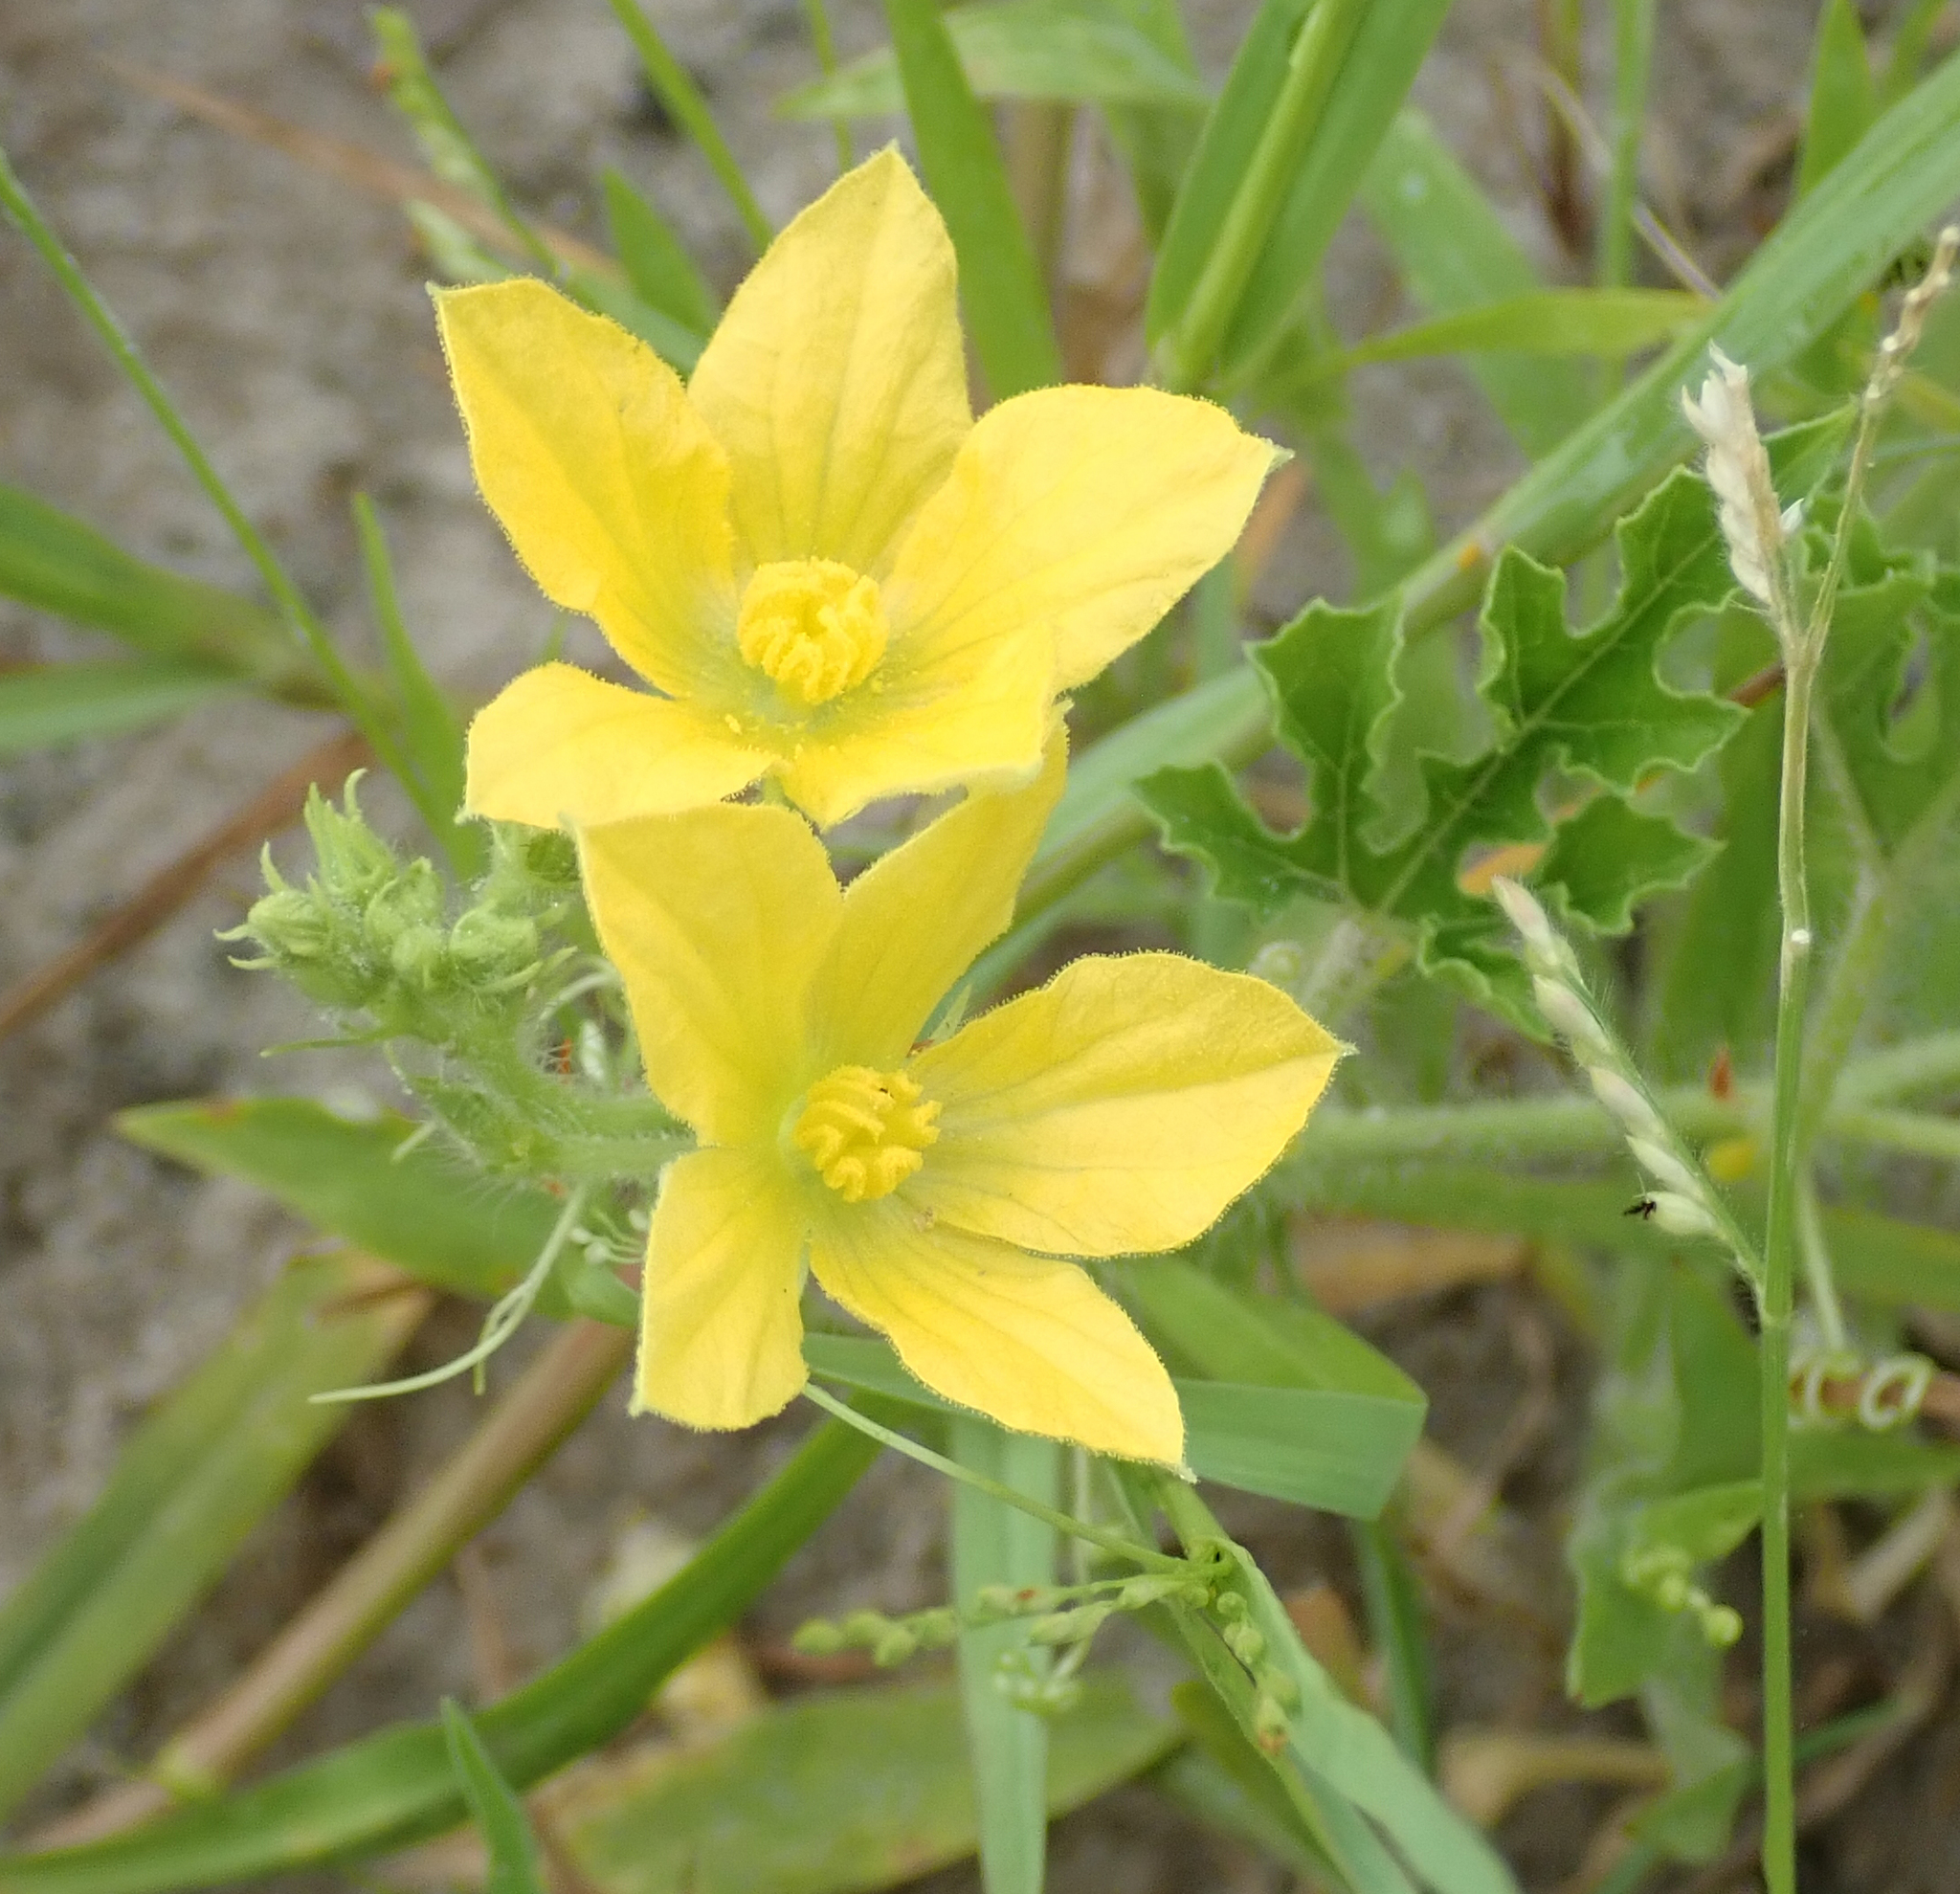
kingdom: Plantae
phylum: Tracheophyta
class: Magnoliopsida
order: Cucurbitales
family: Cucurbitaceae
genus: Citrullus
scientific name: Citrullus naudinianus
